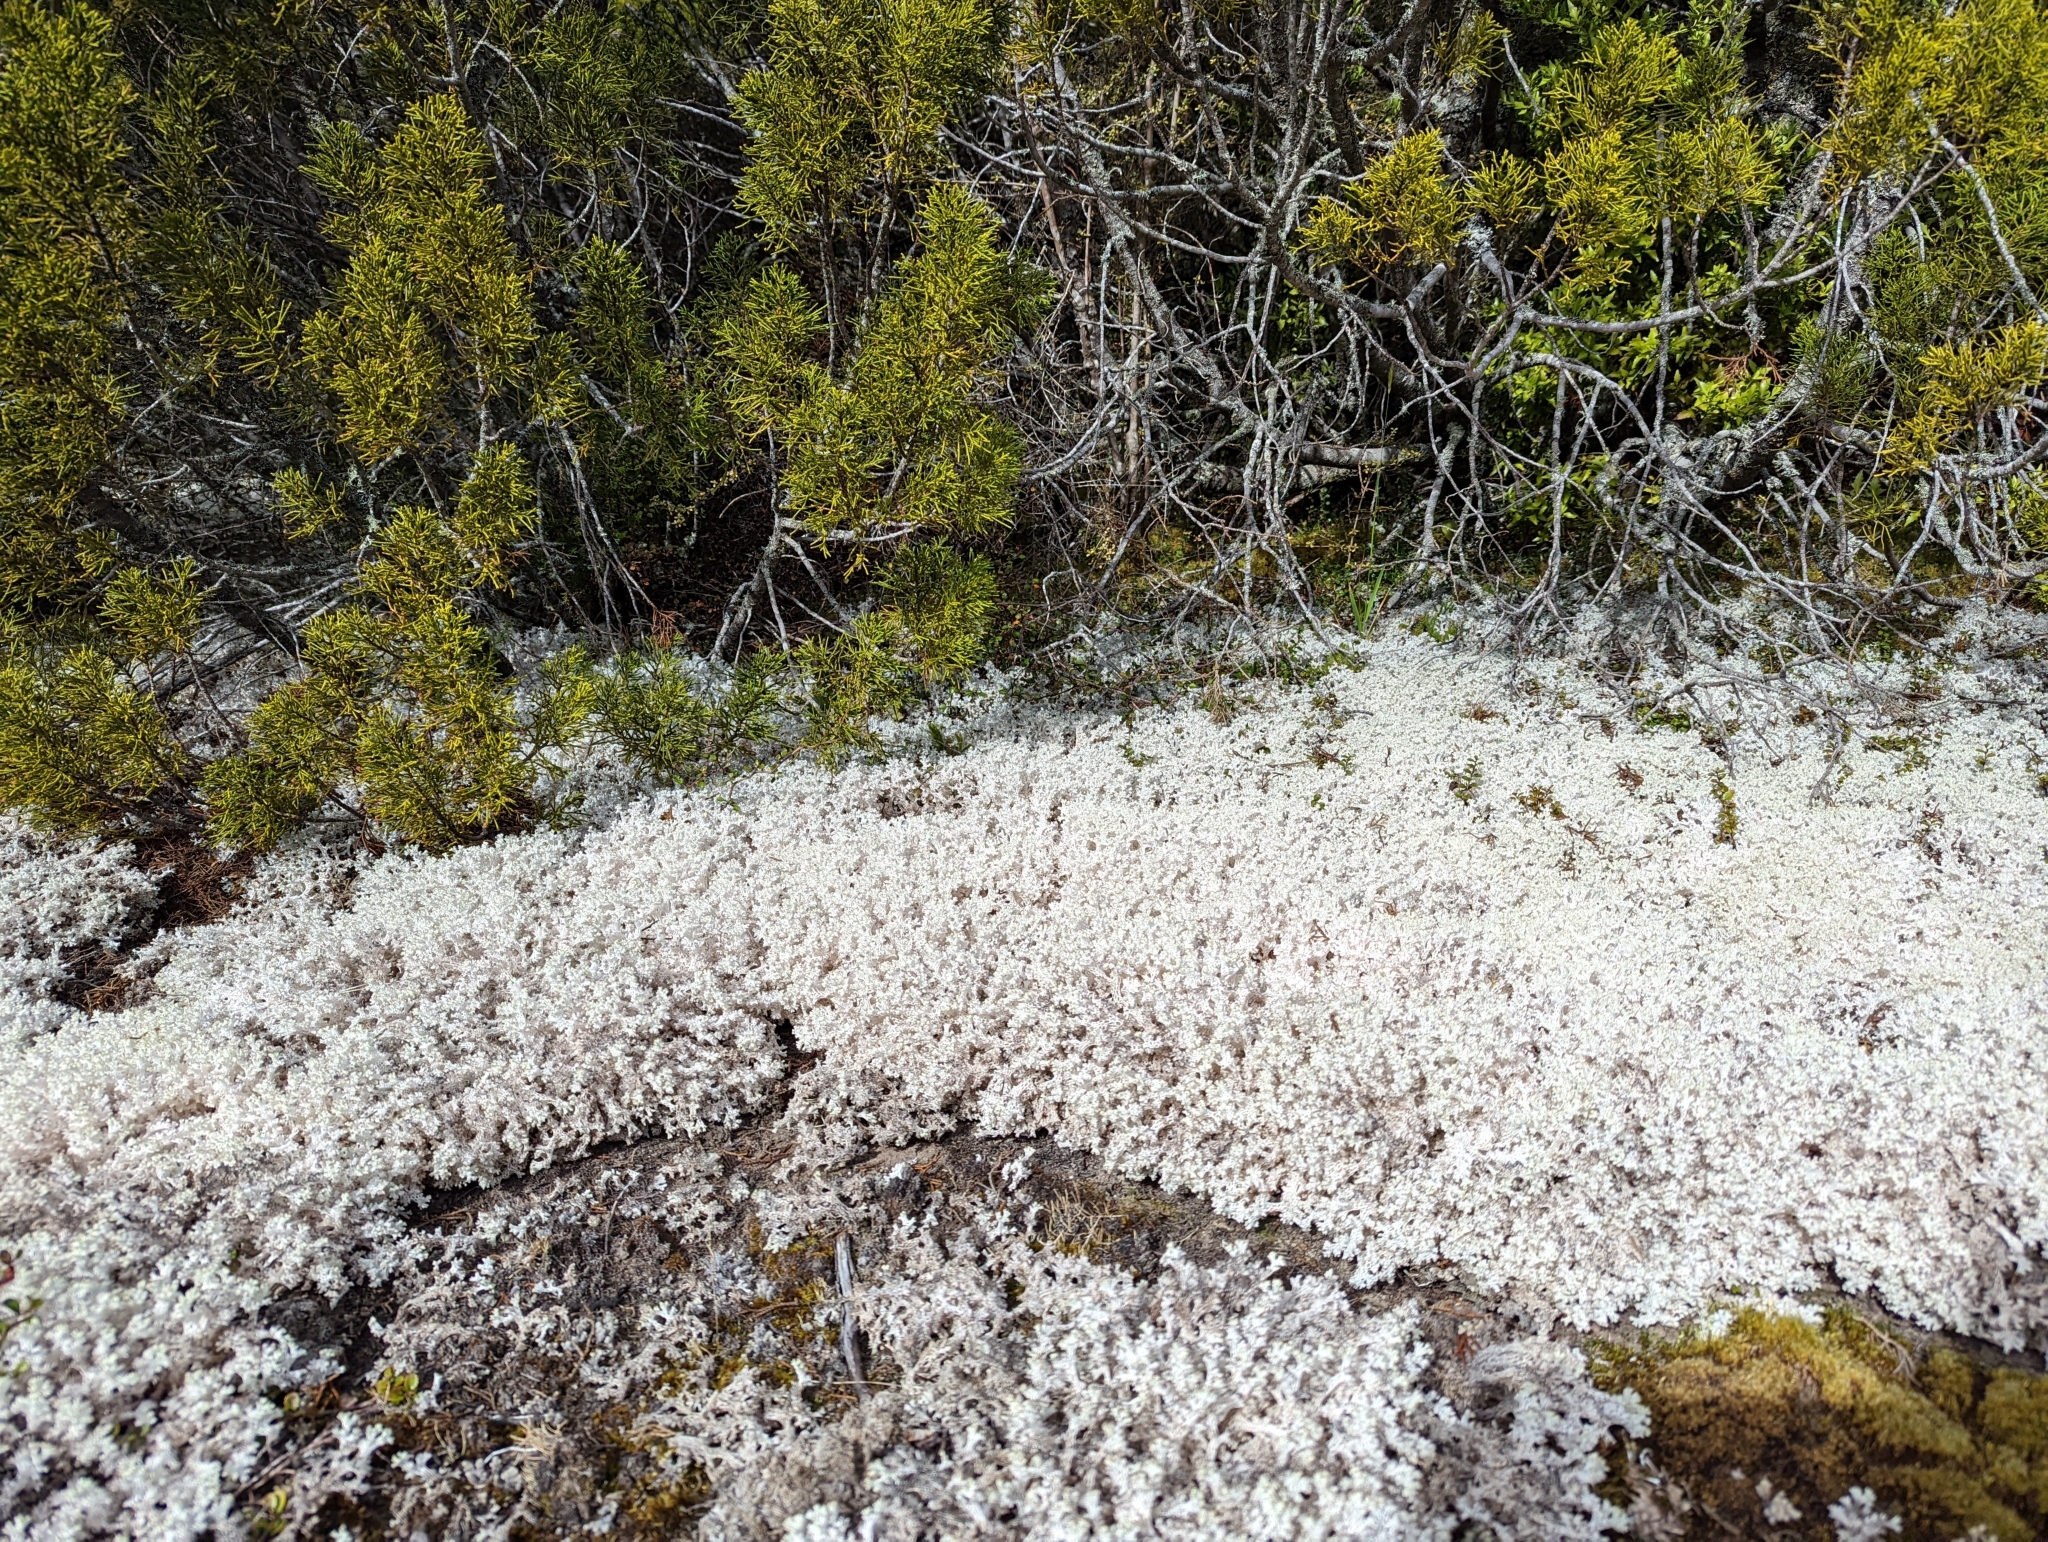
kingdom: Fungi
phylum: Ascomycota
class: Lecanoromycetes
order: Lecanorales
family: Cladoniaceae
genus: Pulchrocladia
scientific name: Pulchrocladia retipora
